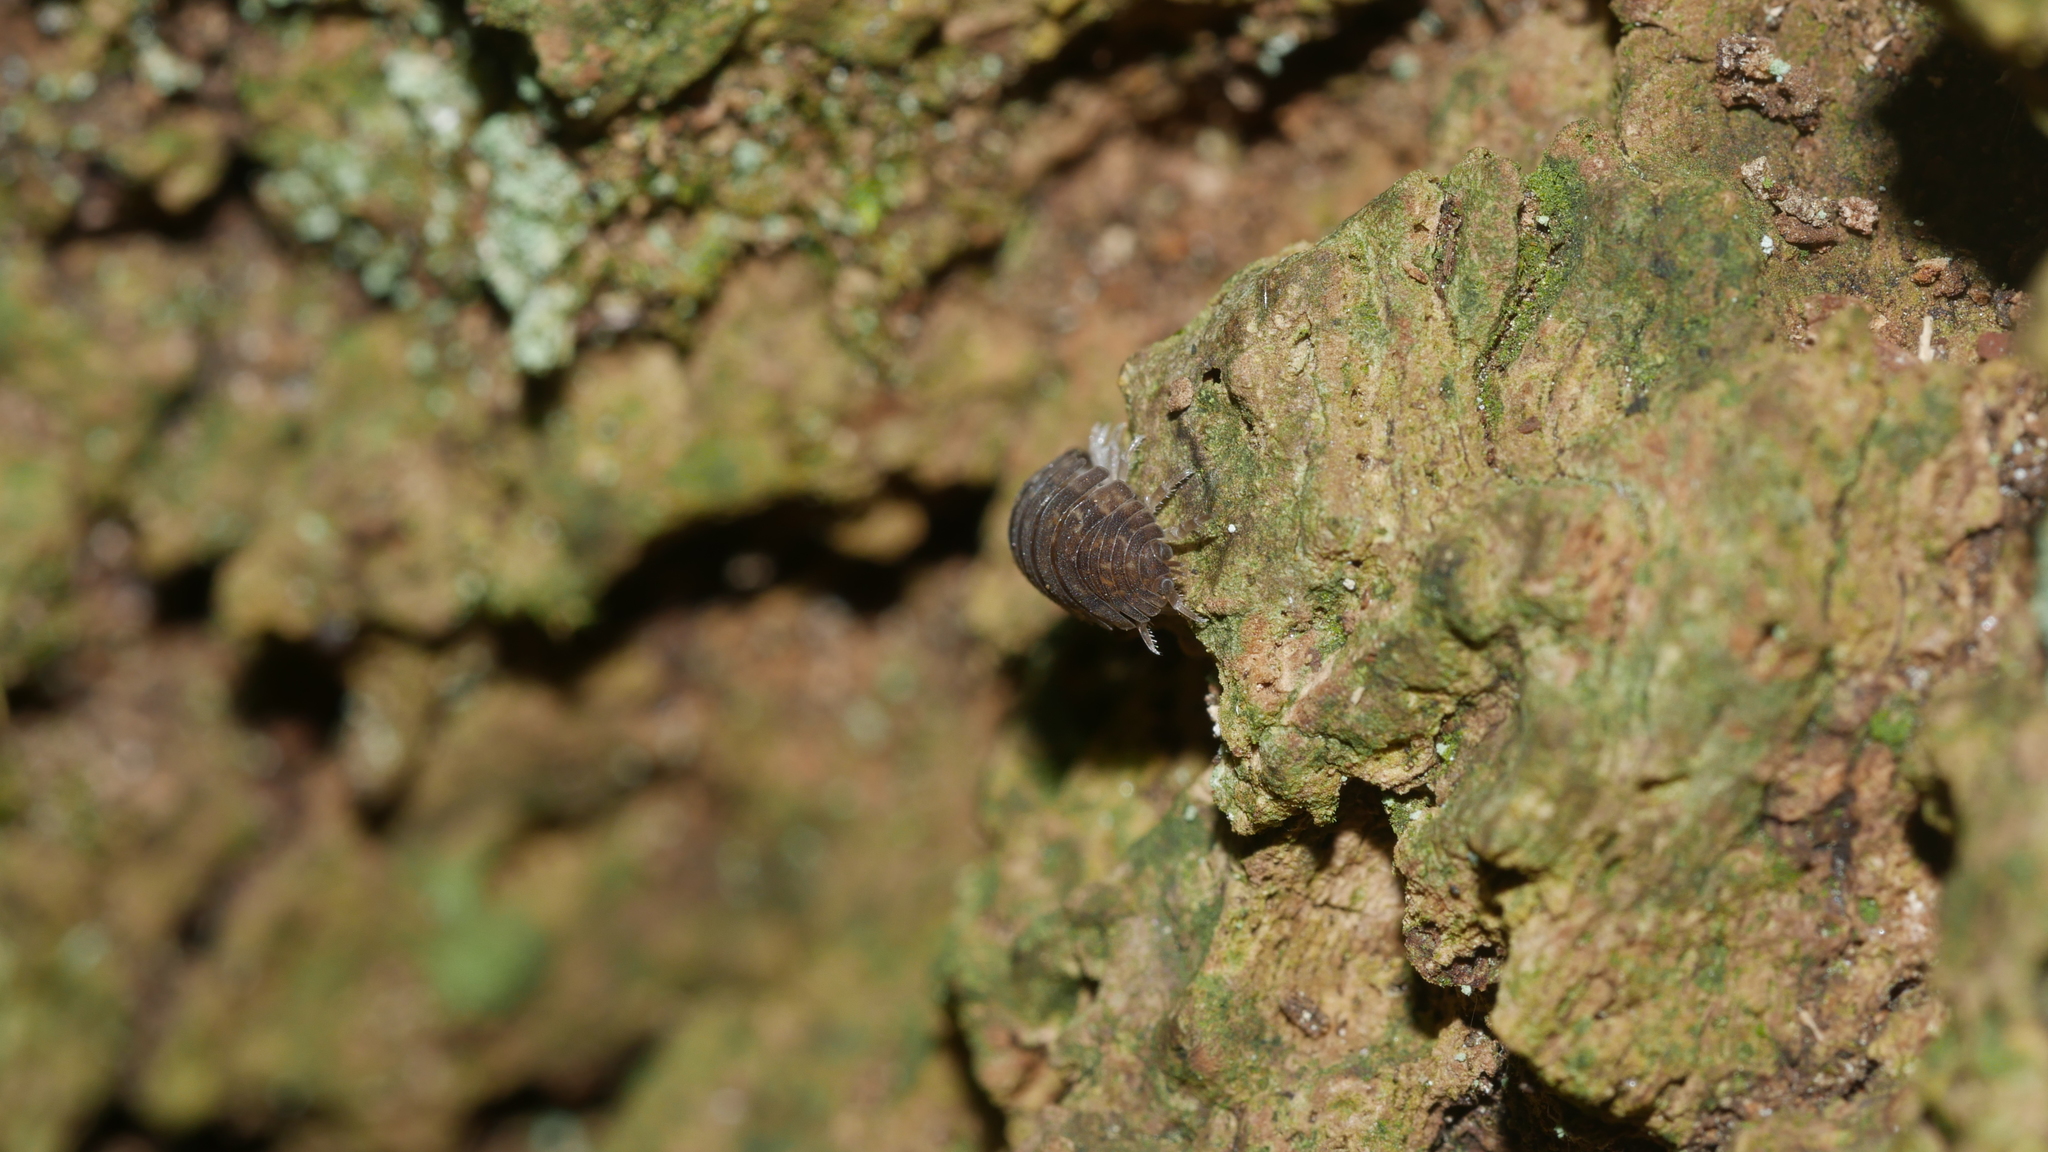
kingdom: Animalia
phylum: Arthropoda
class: Malacostraca
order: Isopoda
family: Porcellionidae
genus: Porcellio
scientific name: Porcellio scaber
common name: Common rough woodlouse
